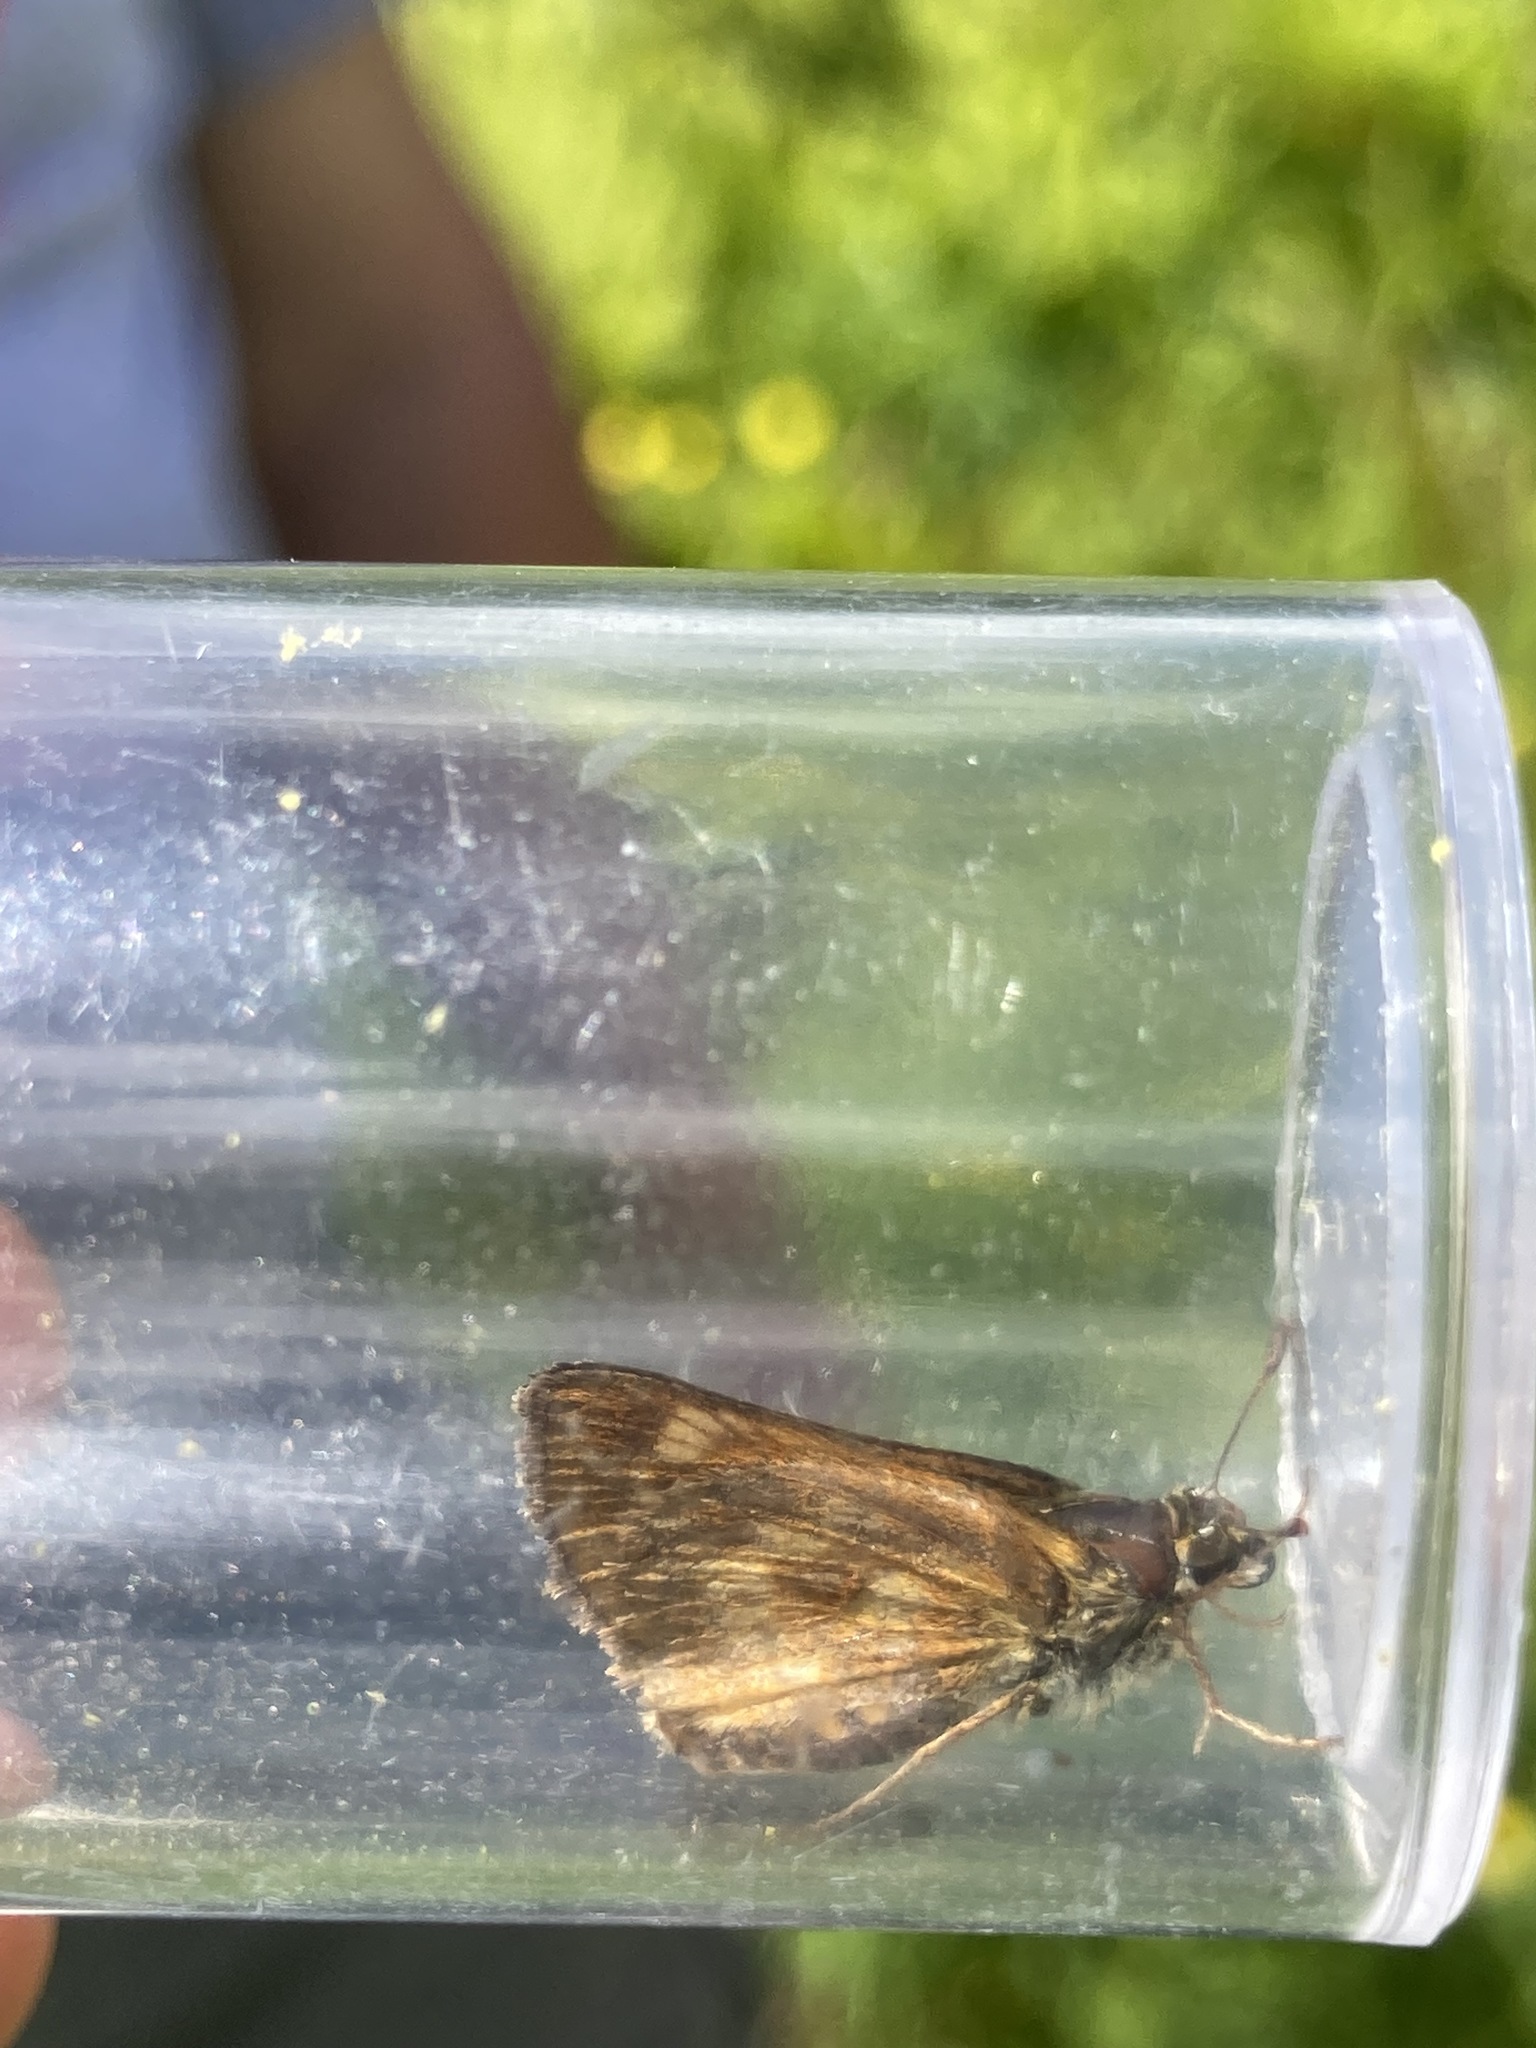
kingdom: Animalia
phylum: Arthropoda
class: Insecta
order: Lepidoptera
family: Hesperiidae
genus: Polites
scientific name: Polites mystic
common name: Long dash
